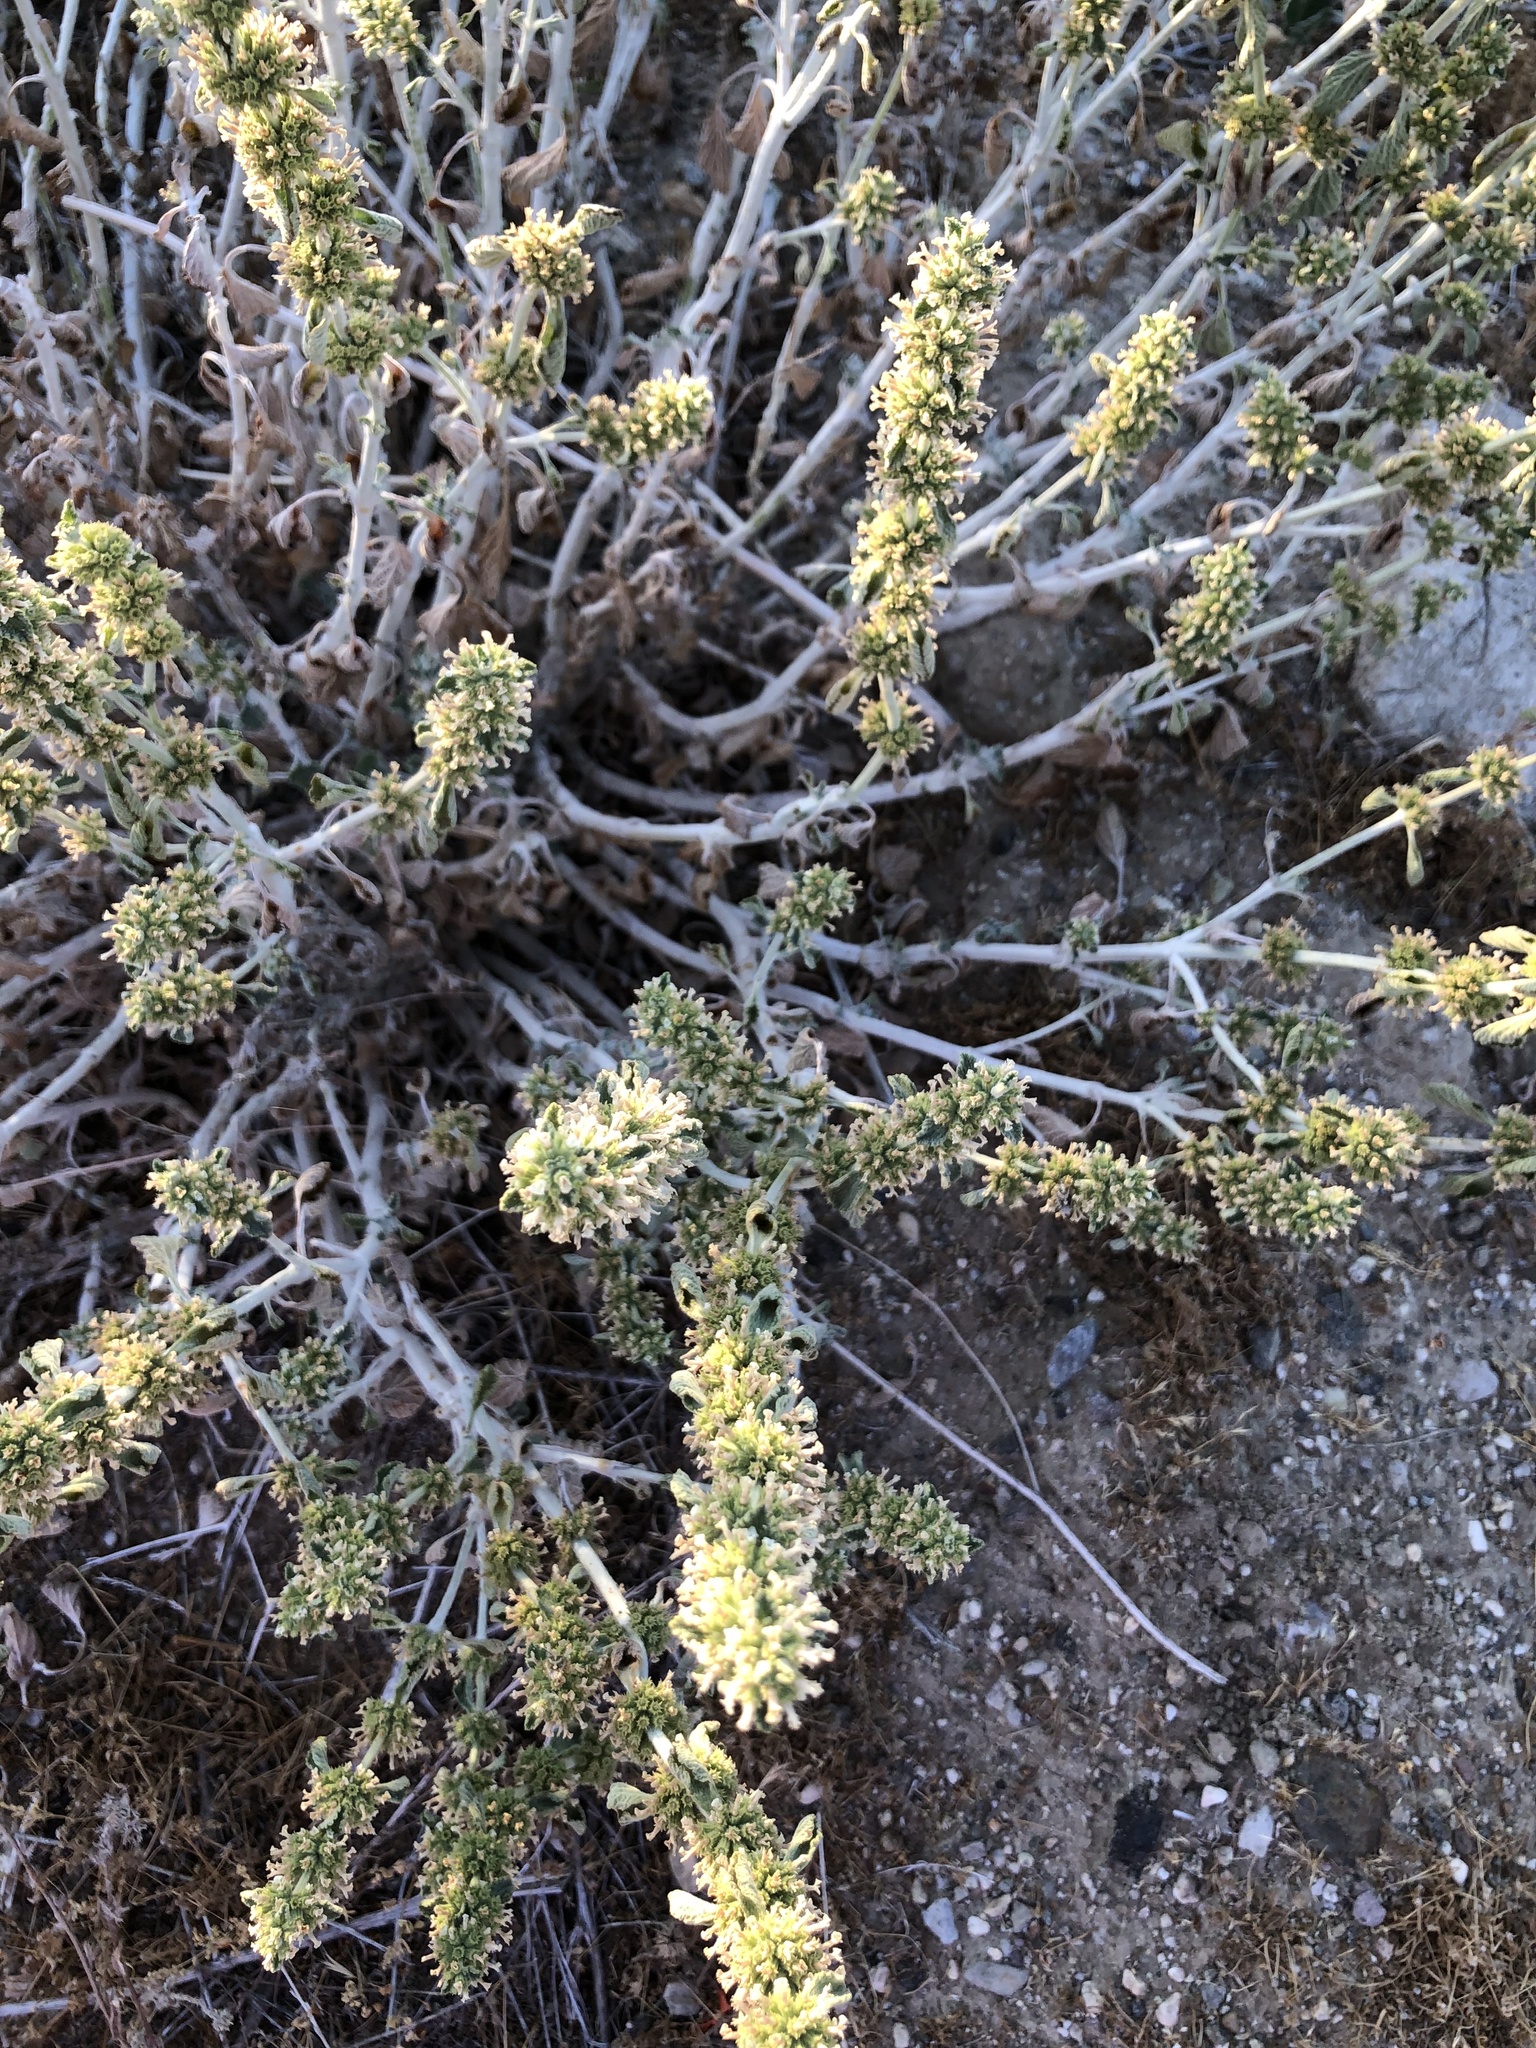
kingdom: Plantae
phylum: Tracheophyta
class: Magnoliopsida
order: Lamiales
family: Lamiaceae
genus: Marrubium
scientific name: Marrubium vulgare
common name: Horehound
